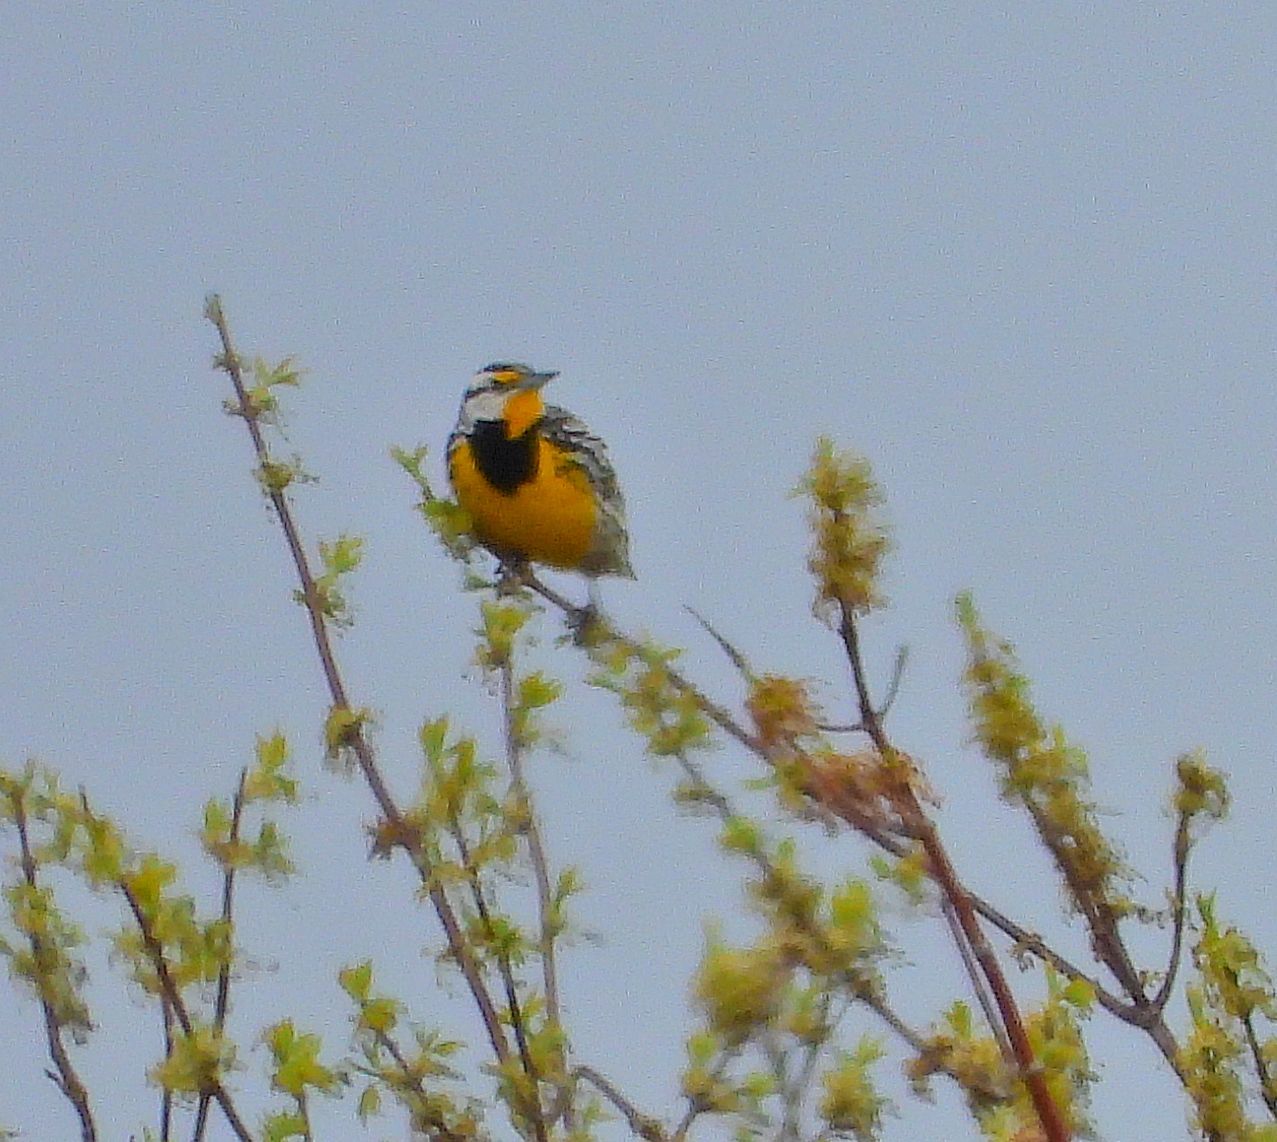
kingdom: Animalia
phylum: Chordata
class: Aves
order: Passeriformes
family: Icteridae
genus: Sturnella
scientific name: Sturnella magna
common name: Eastern meadowlark
